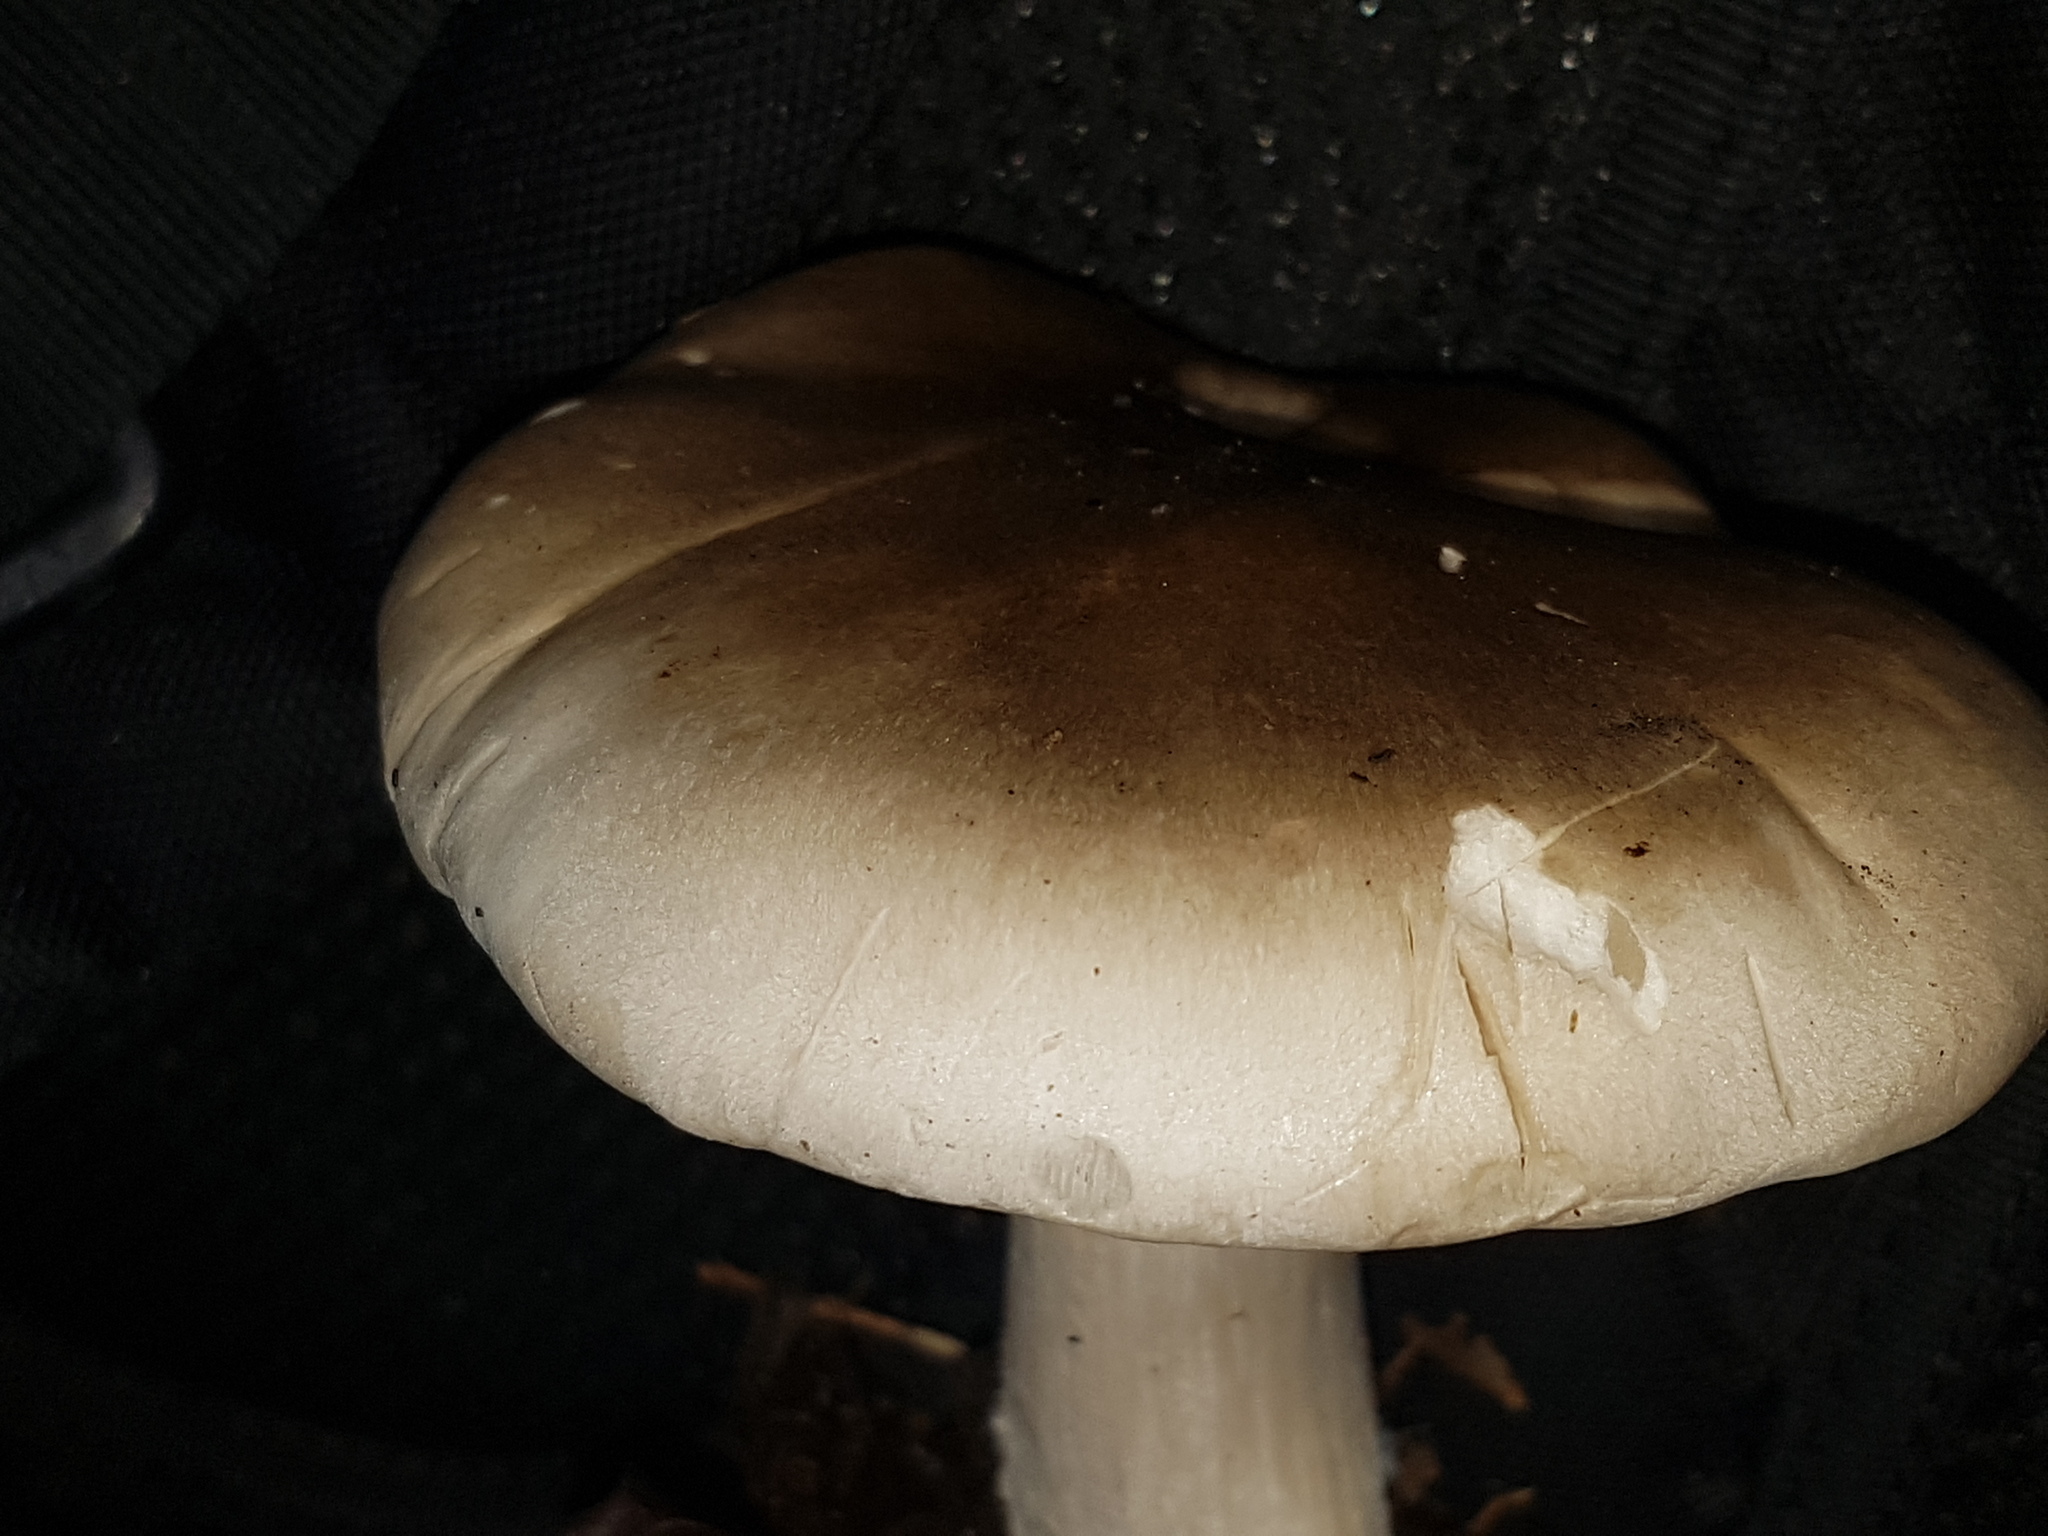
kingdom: Fungi
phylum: Basidiomycota
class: Agaricomycetes
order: Agaricales
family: Tricholomataceae
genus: Clitocybe
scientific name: Clitocybe nebularis
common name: Clouded agaric
